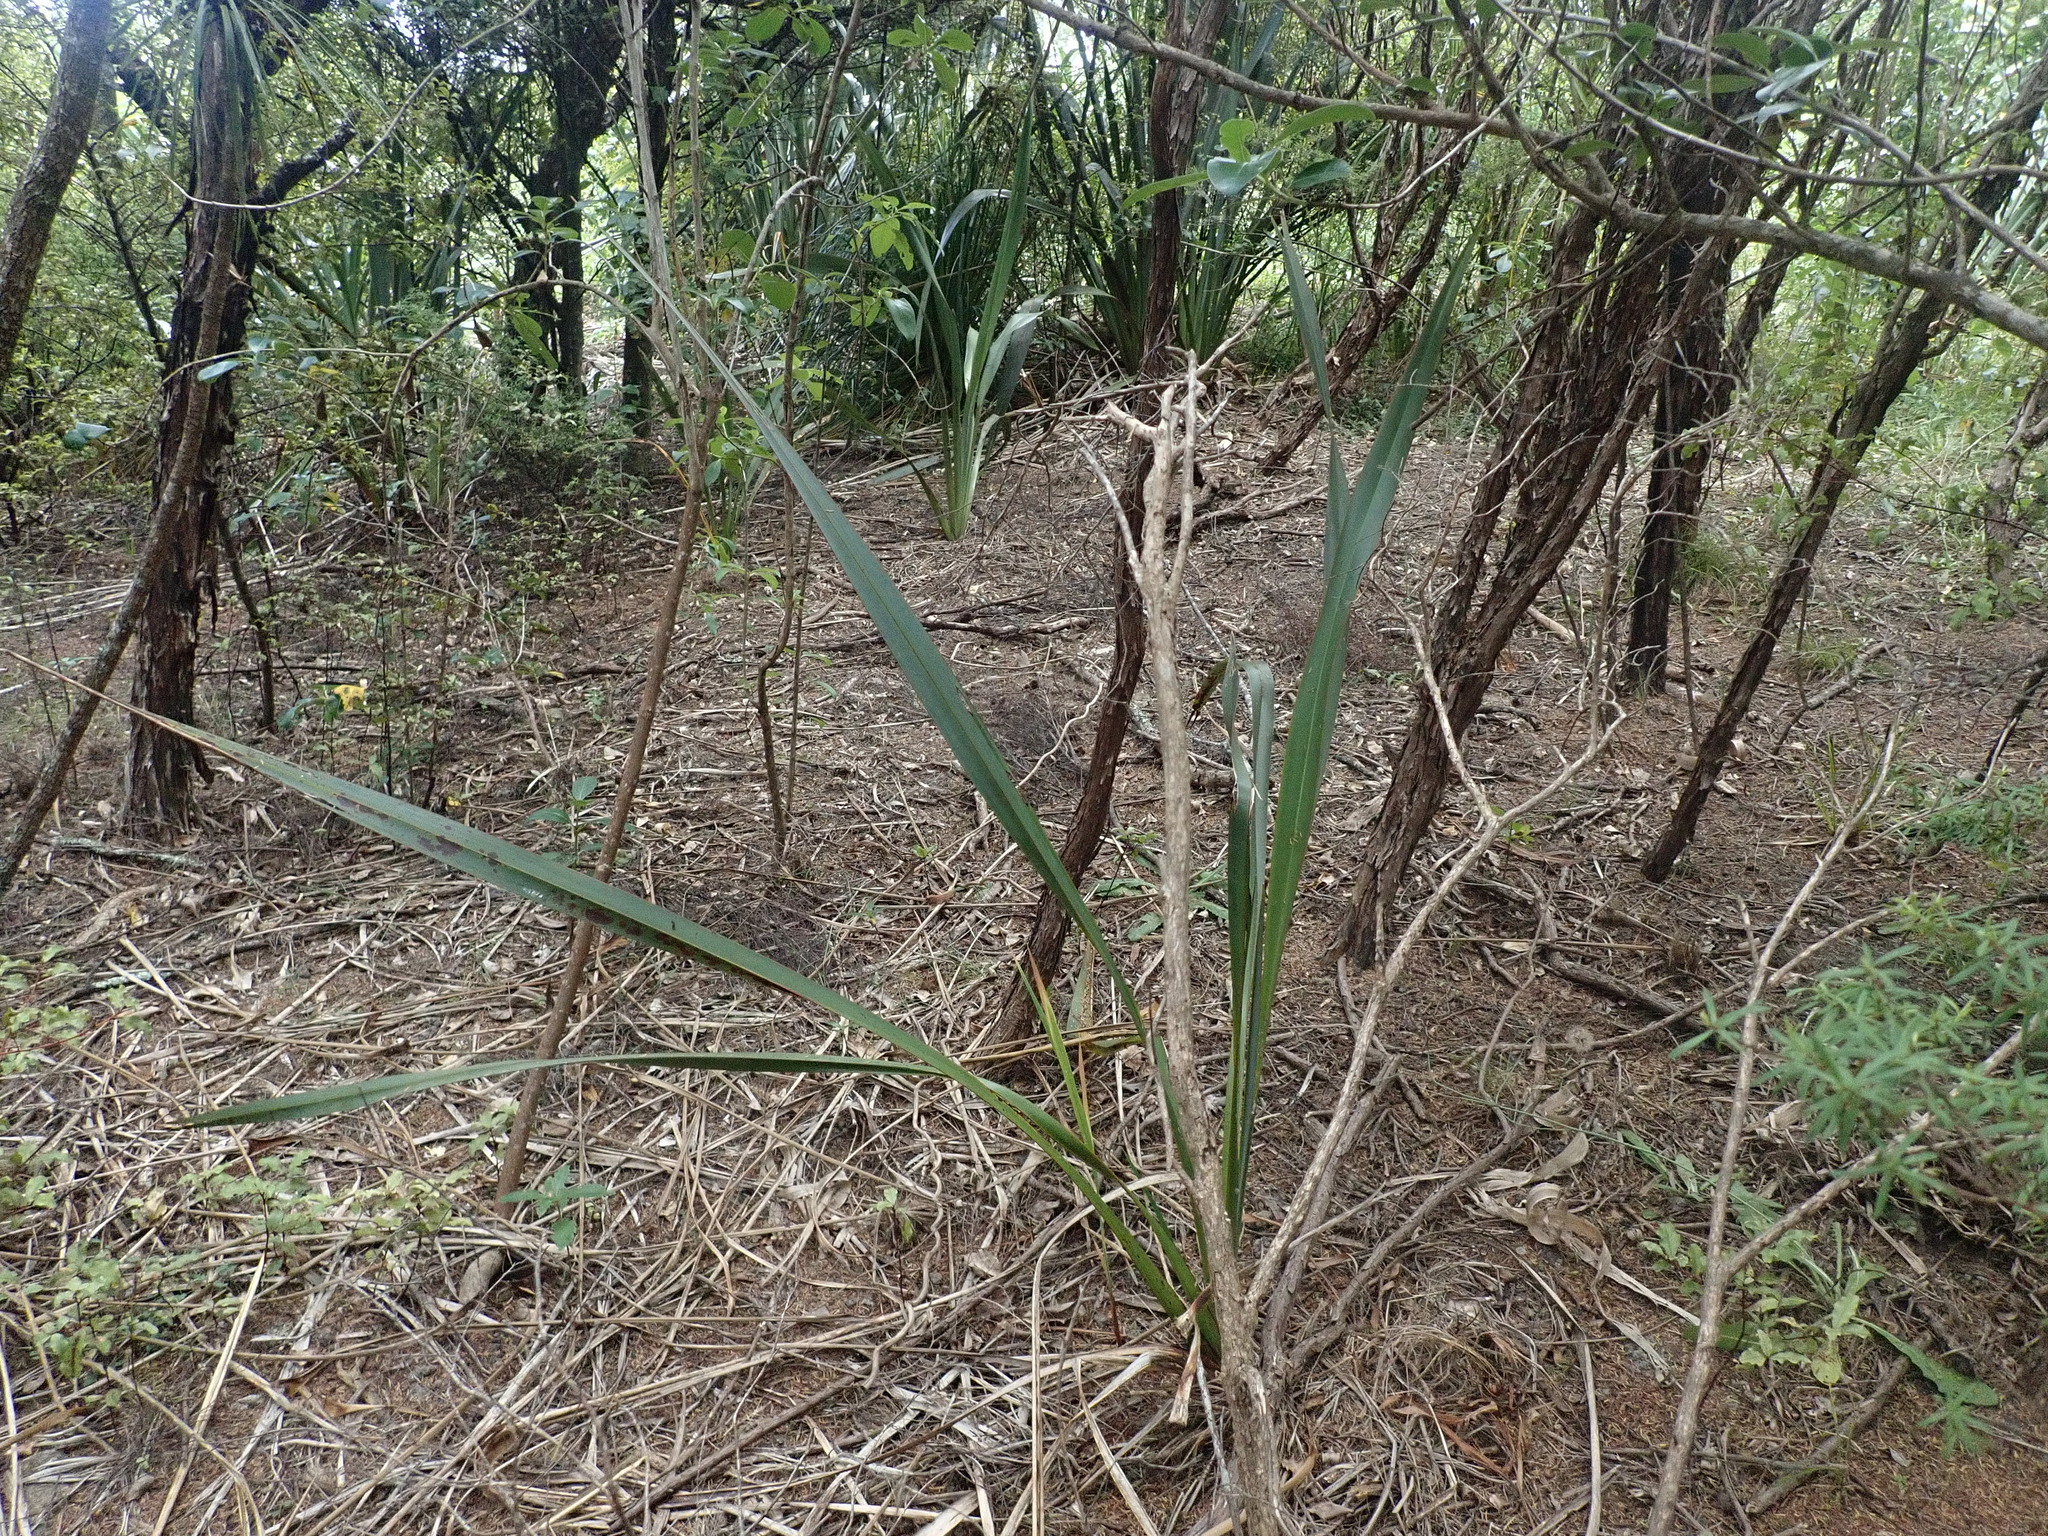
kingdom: Plantae
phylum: Tracheophyta
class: Liliopsida
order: Asparagales
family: Asphodelaceae
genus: Phormium
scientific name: Phormium tenax
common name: New zealand flax
